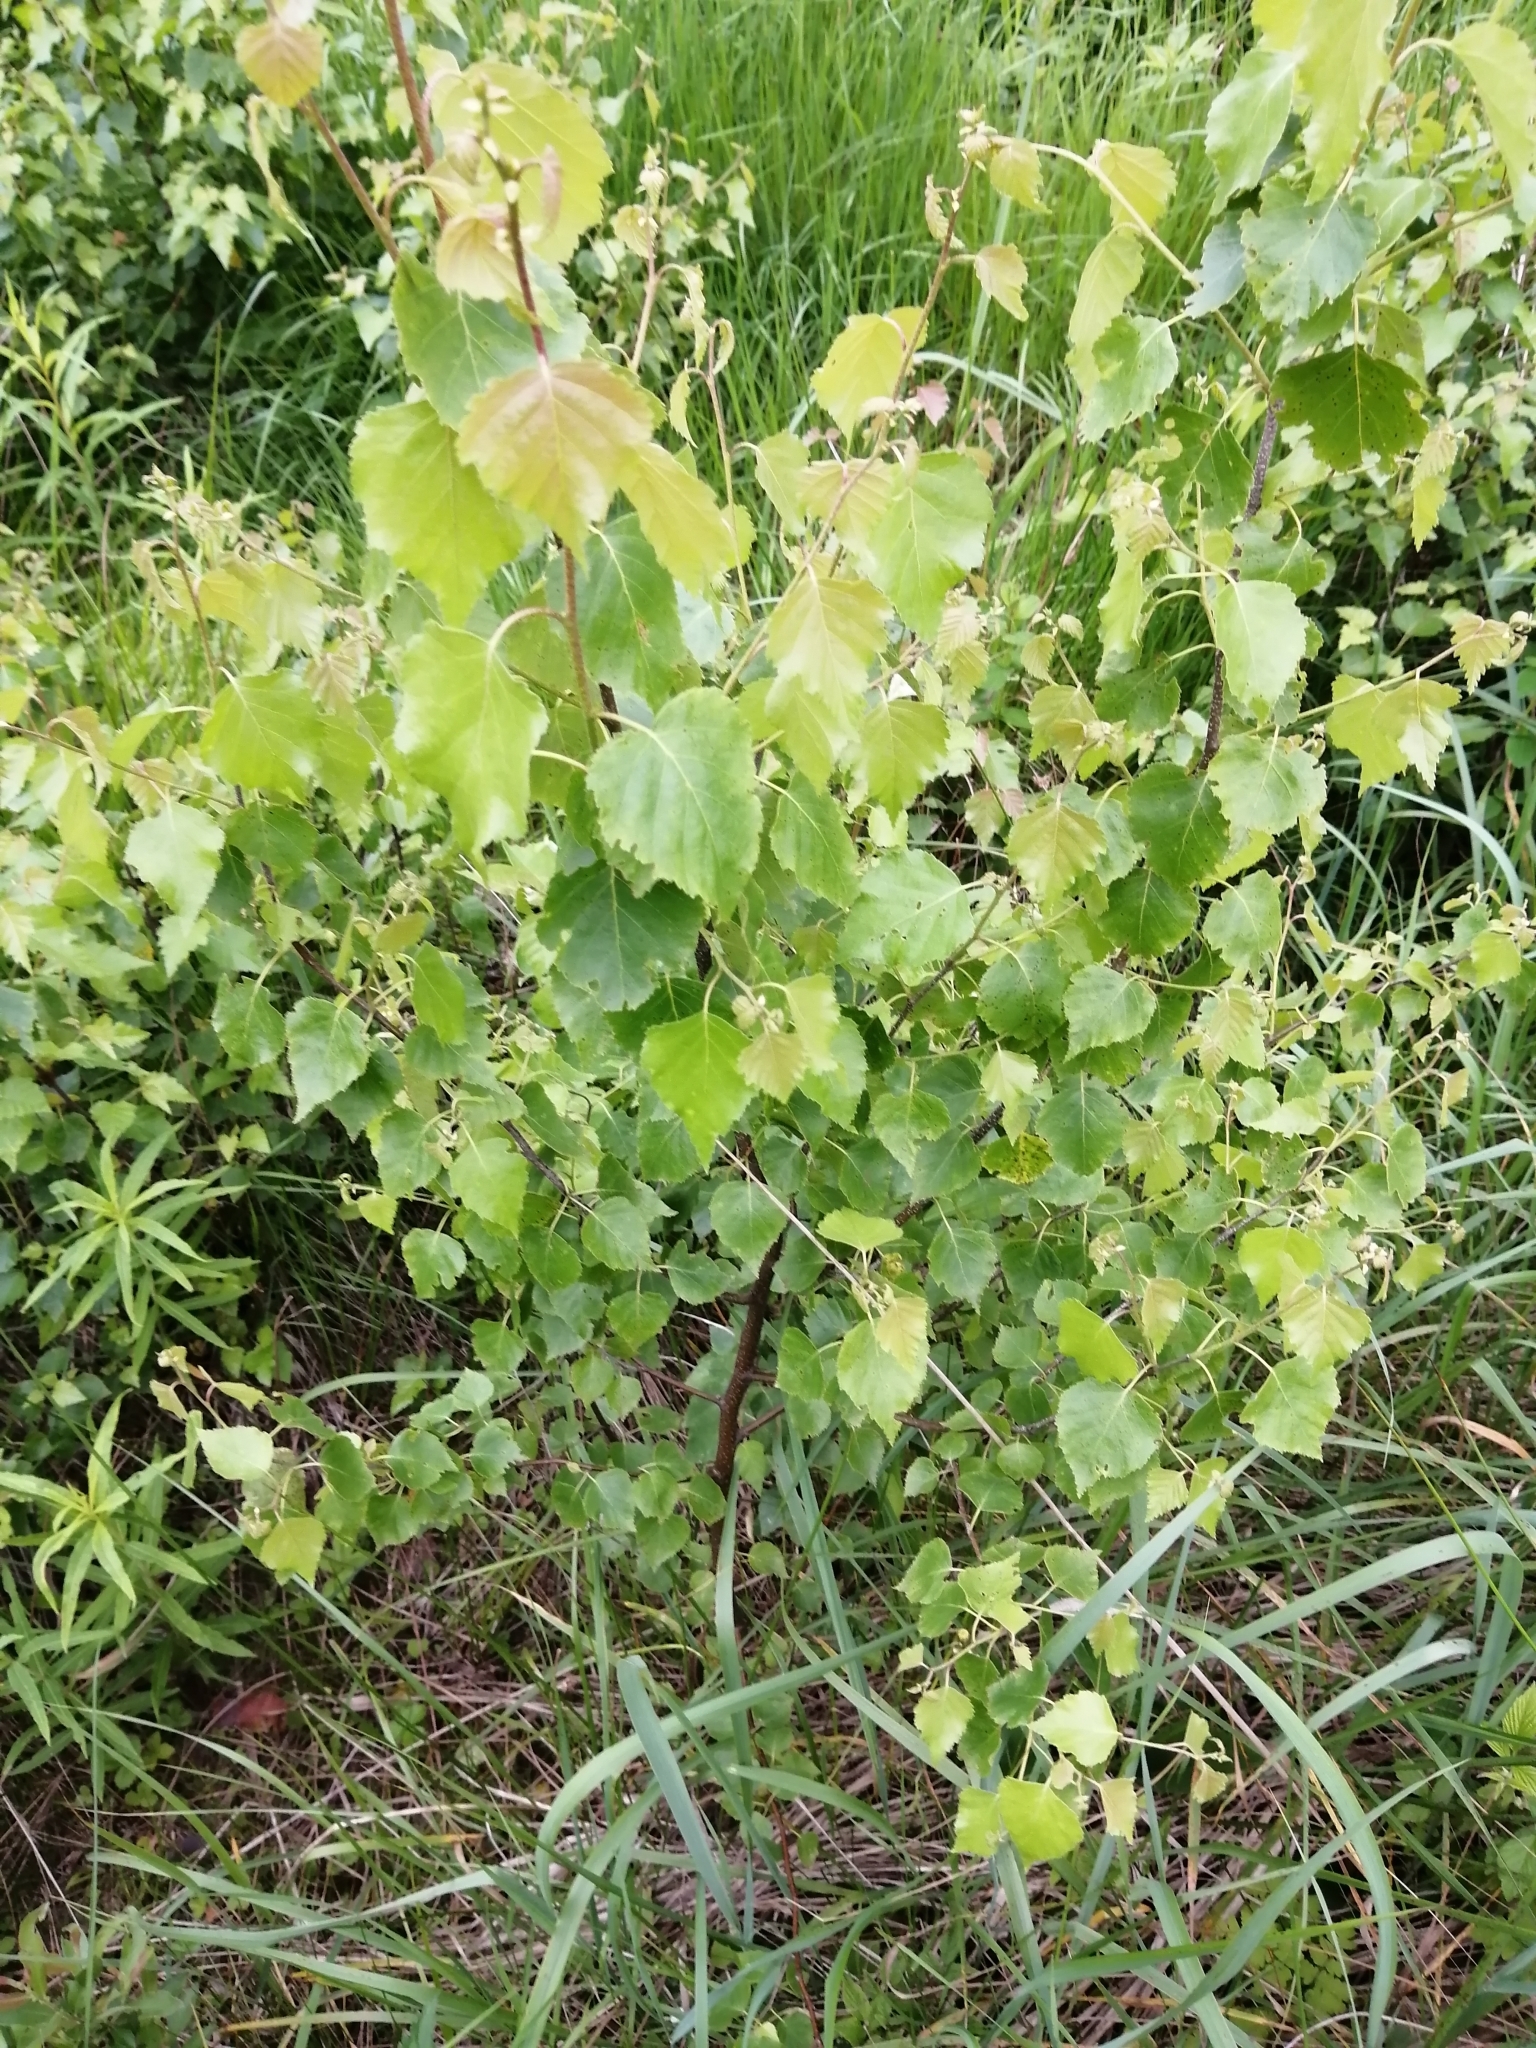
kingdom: Plantae
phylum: Tracheophyta
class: Magnoliopsida
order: Fagales
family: Betulaceae
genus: Betula
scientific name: Betula pendula
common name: Silver birch
